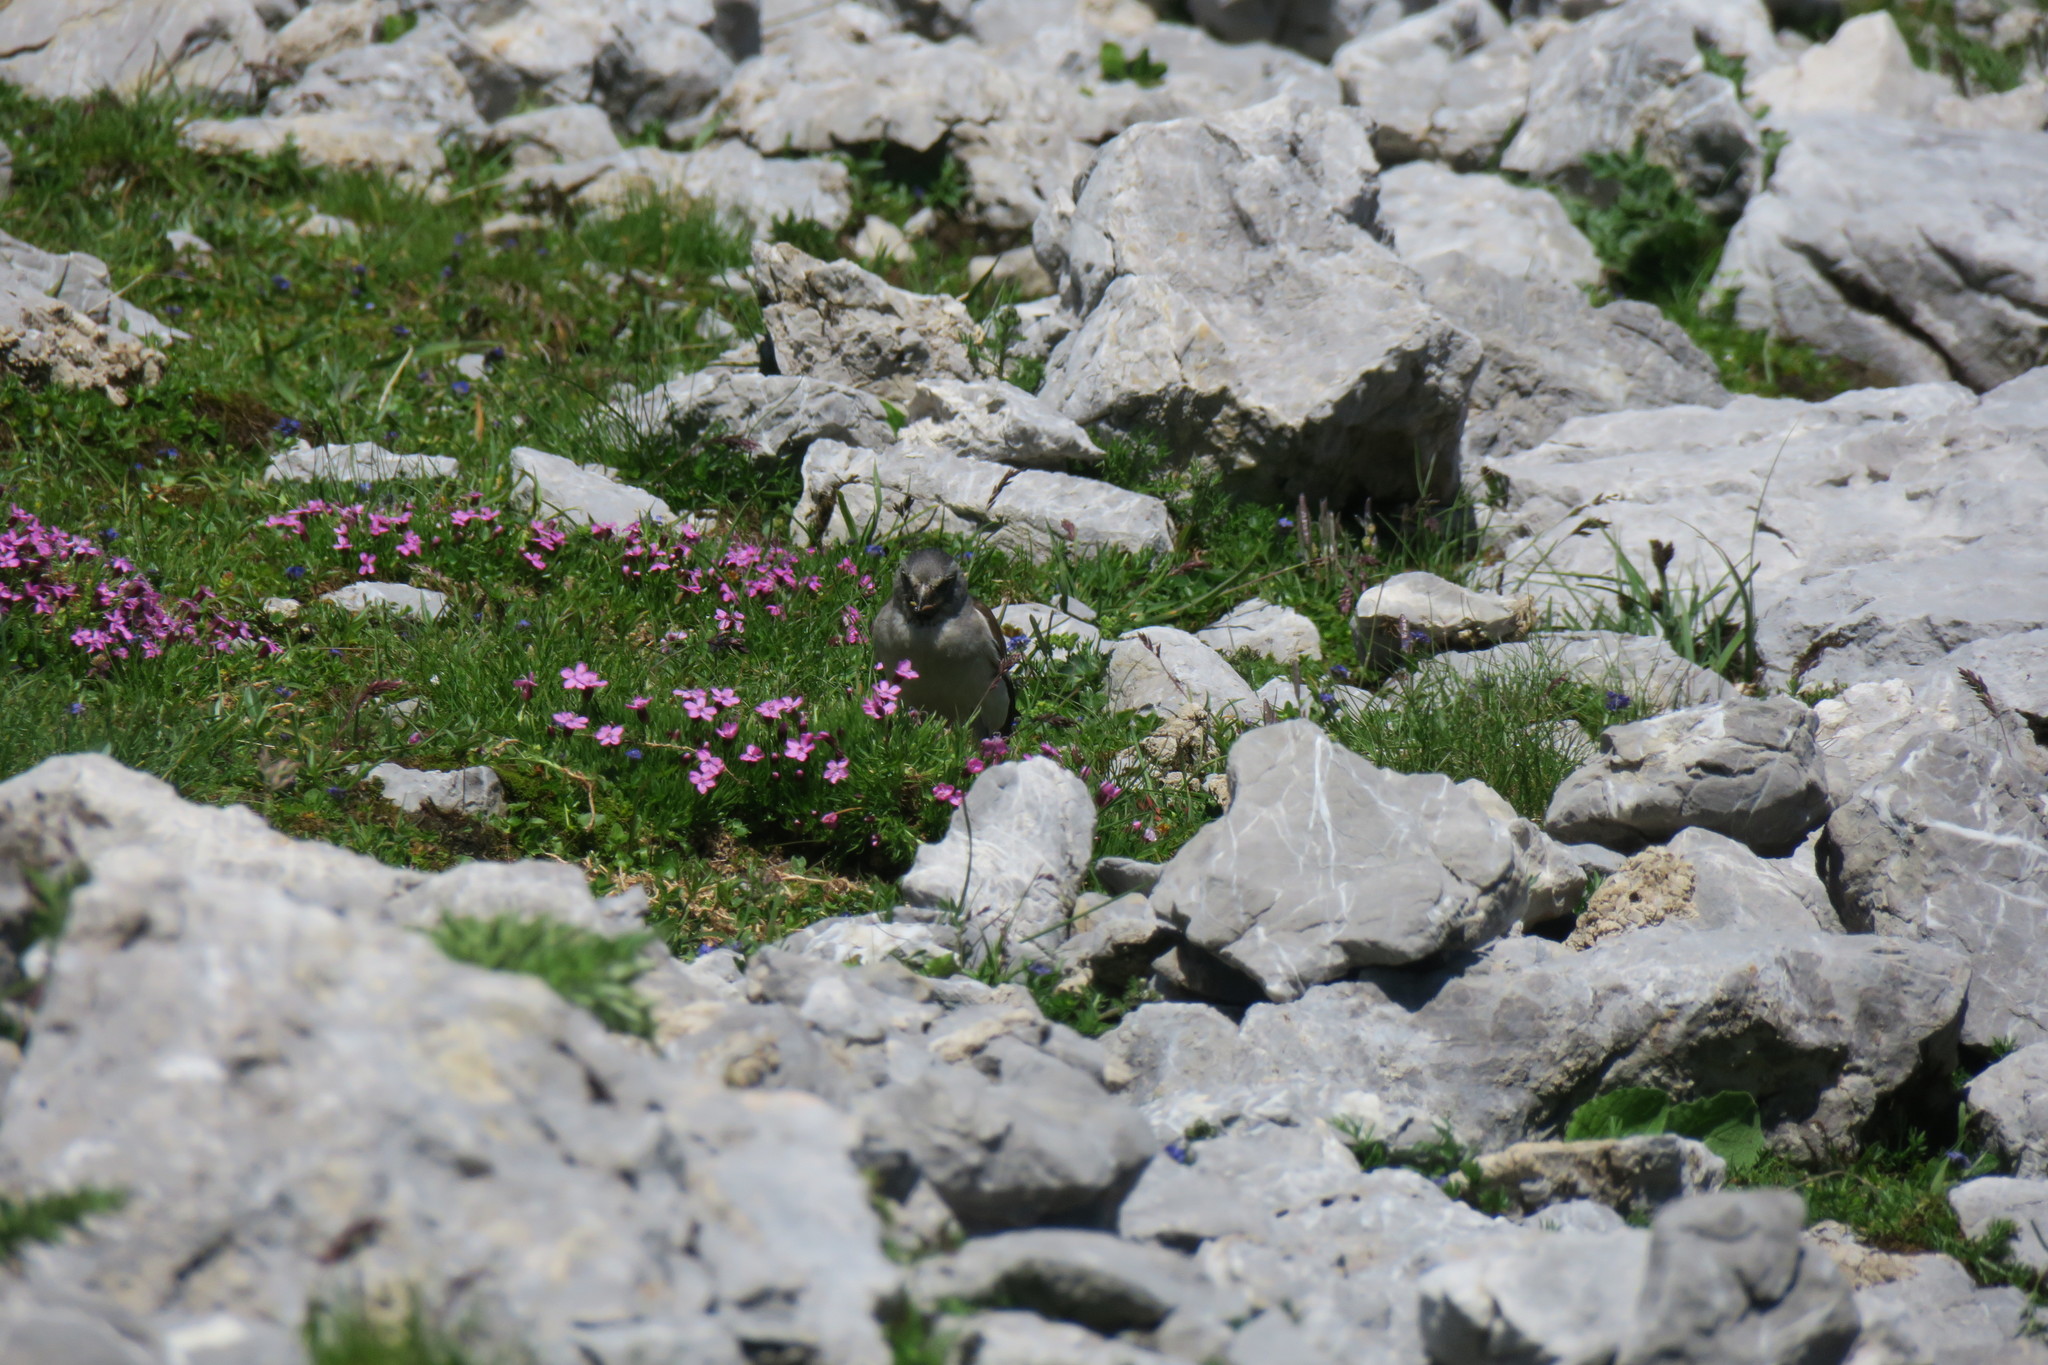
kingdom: Animalia
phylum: Chordata
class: Aves
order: Passeriformes
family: Passeridae
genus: Montifringilla
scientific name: Montifringilla nivalis
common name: White-winged snowfinch
